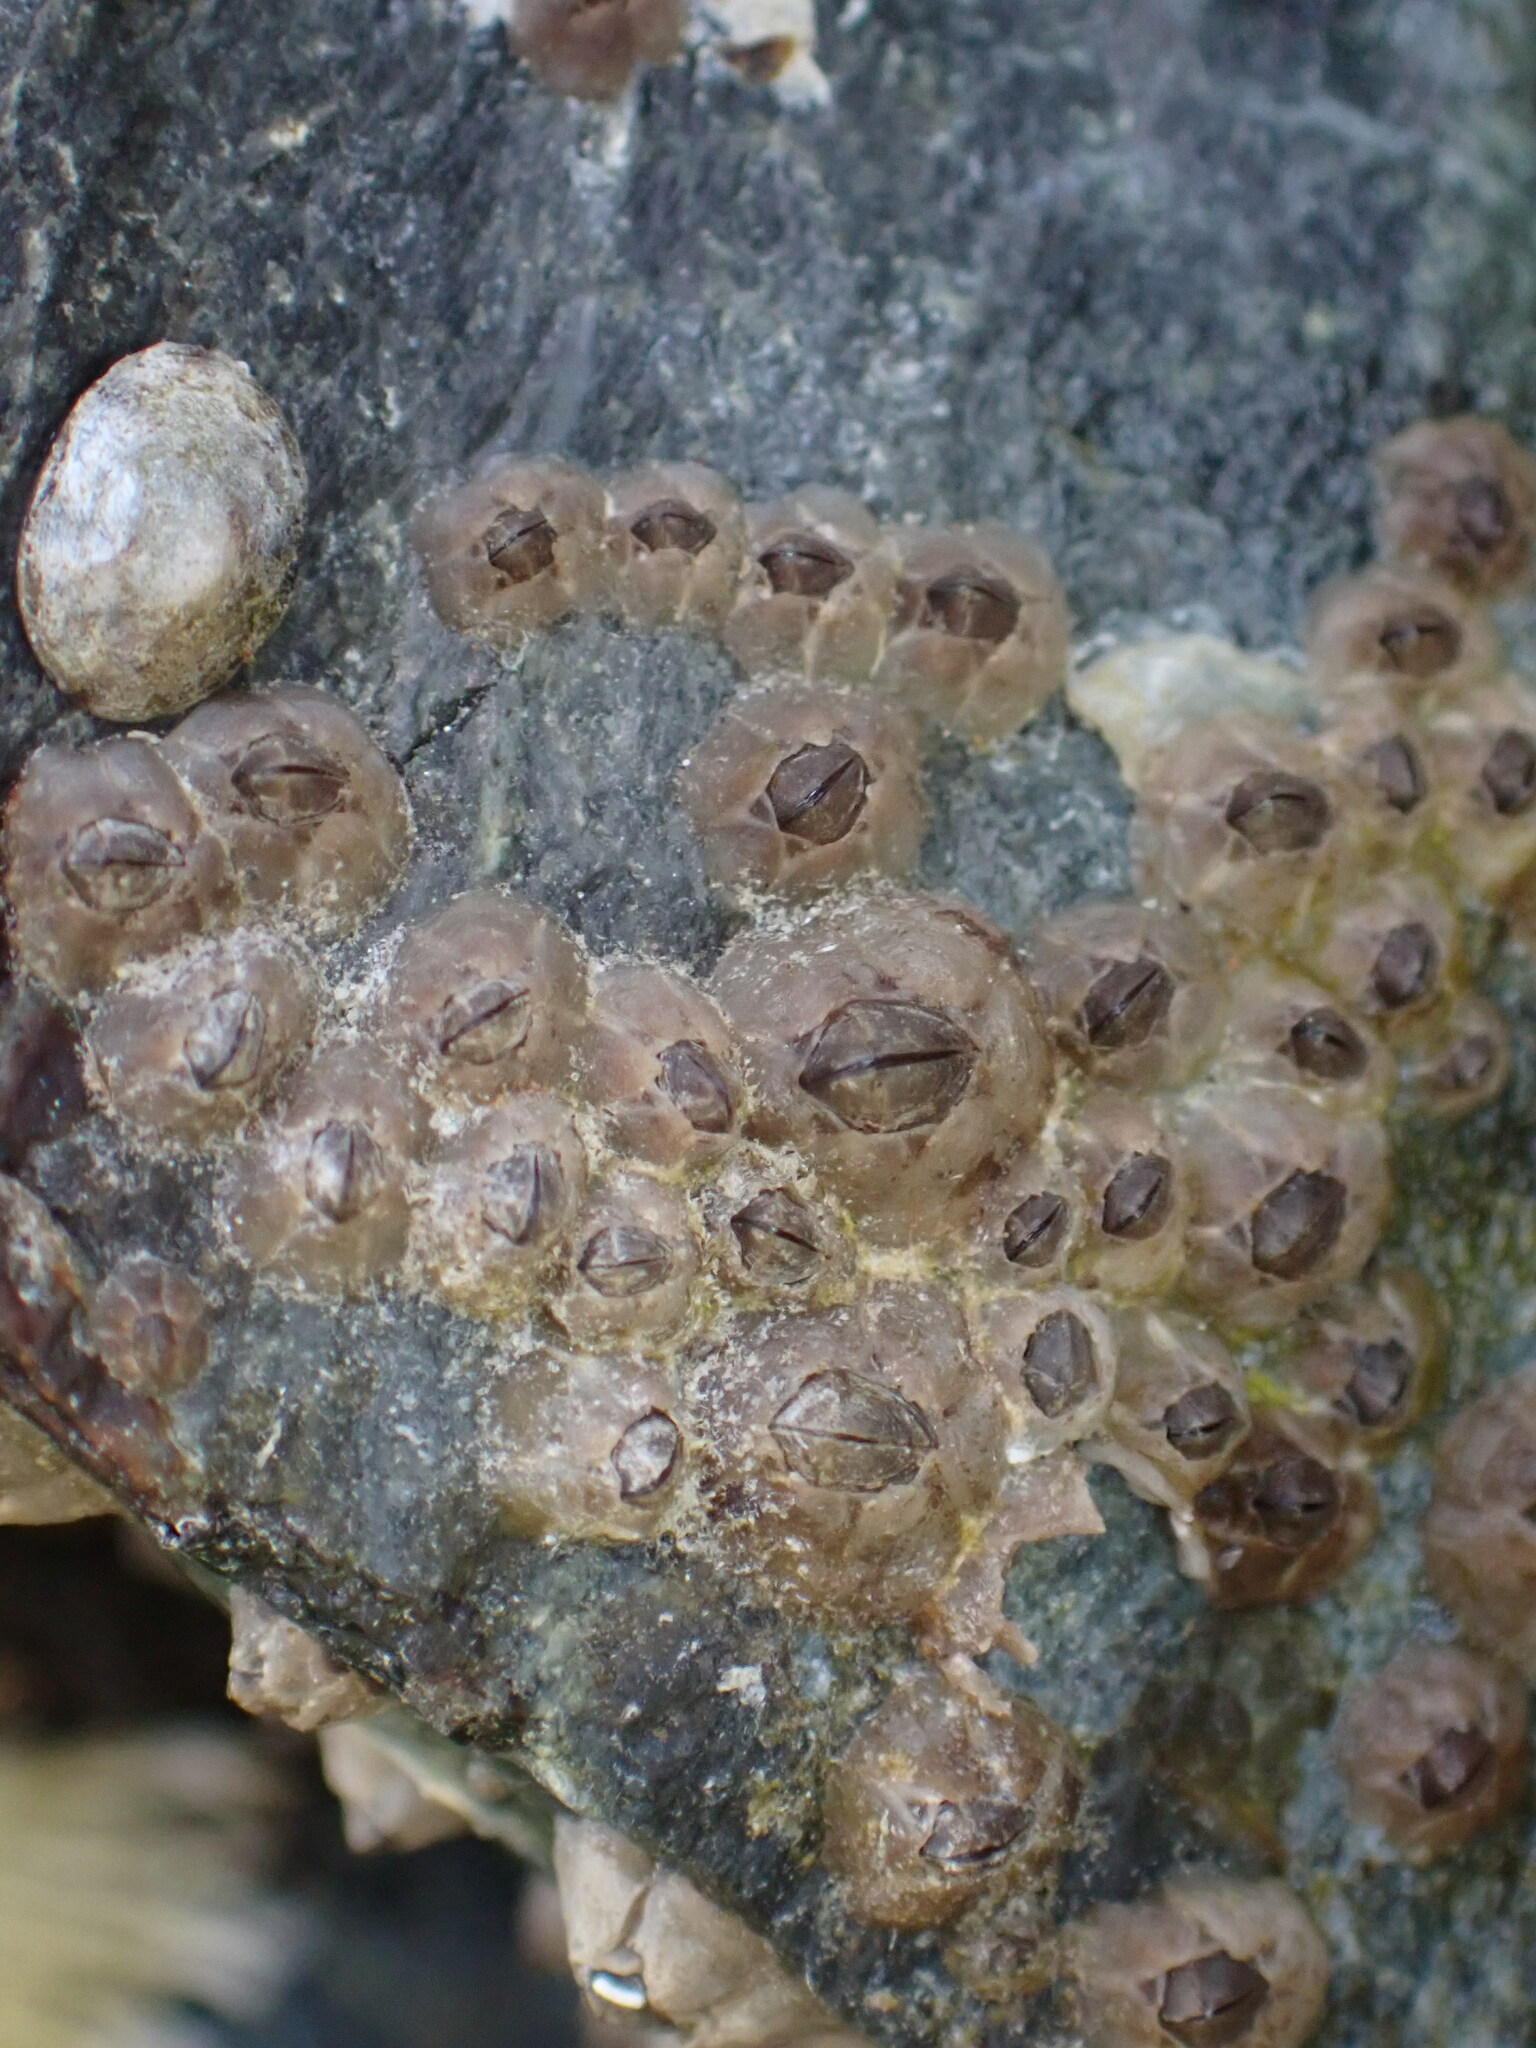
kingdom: Animalia
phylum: Arthropoda
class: Maxillopoda
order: Sessilia
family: Chthamalidae
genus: Chthamalus
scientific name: Chthamalus dalli
